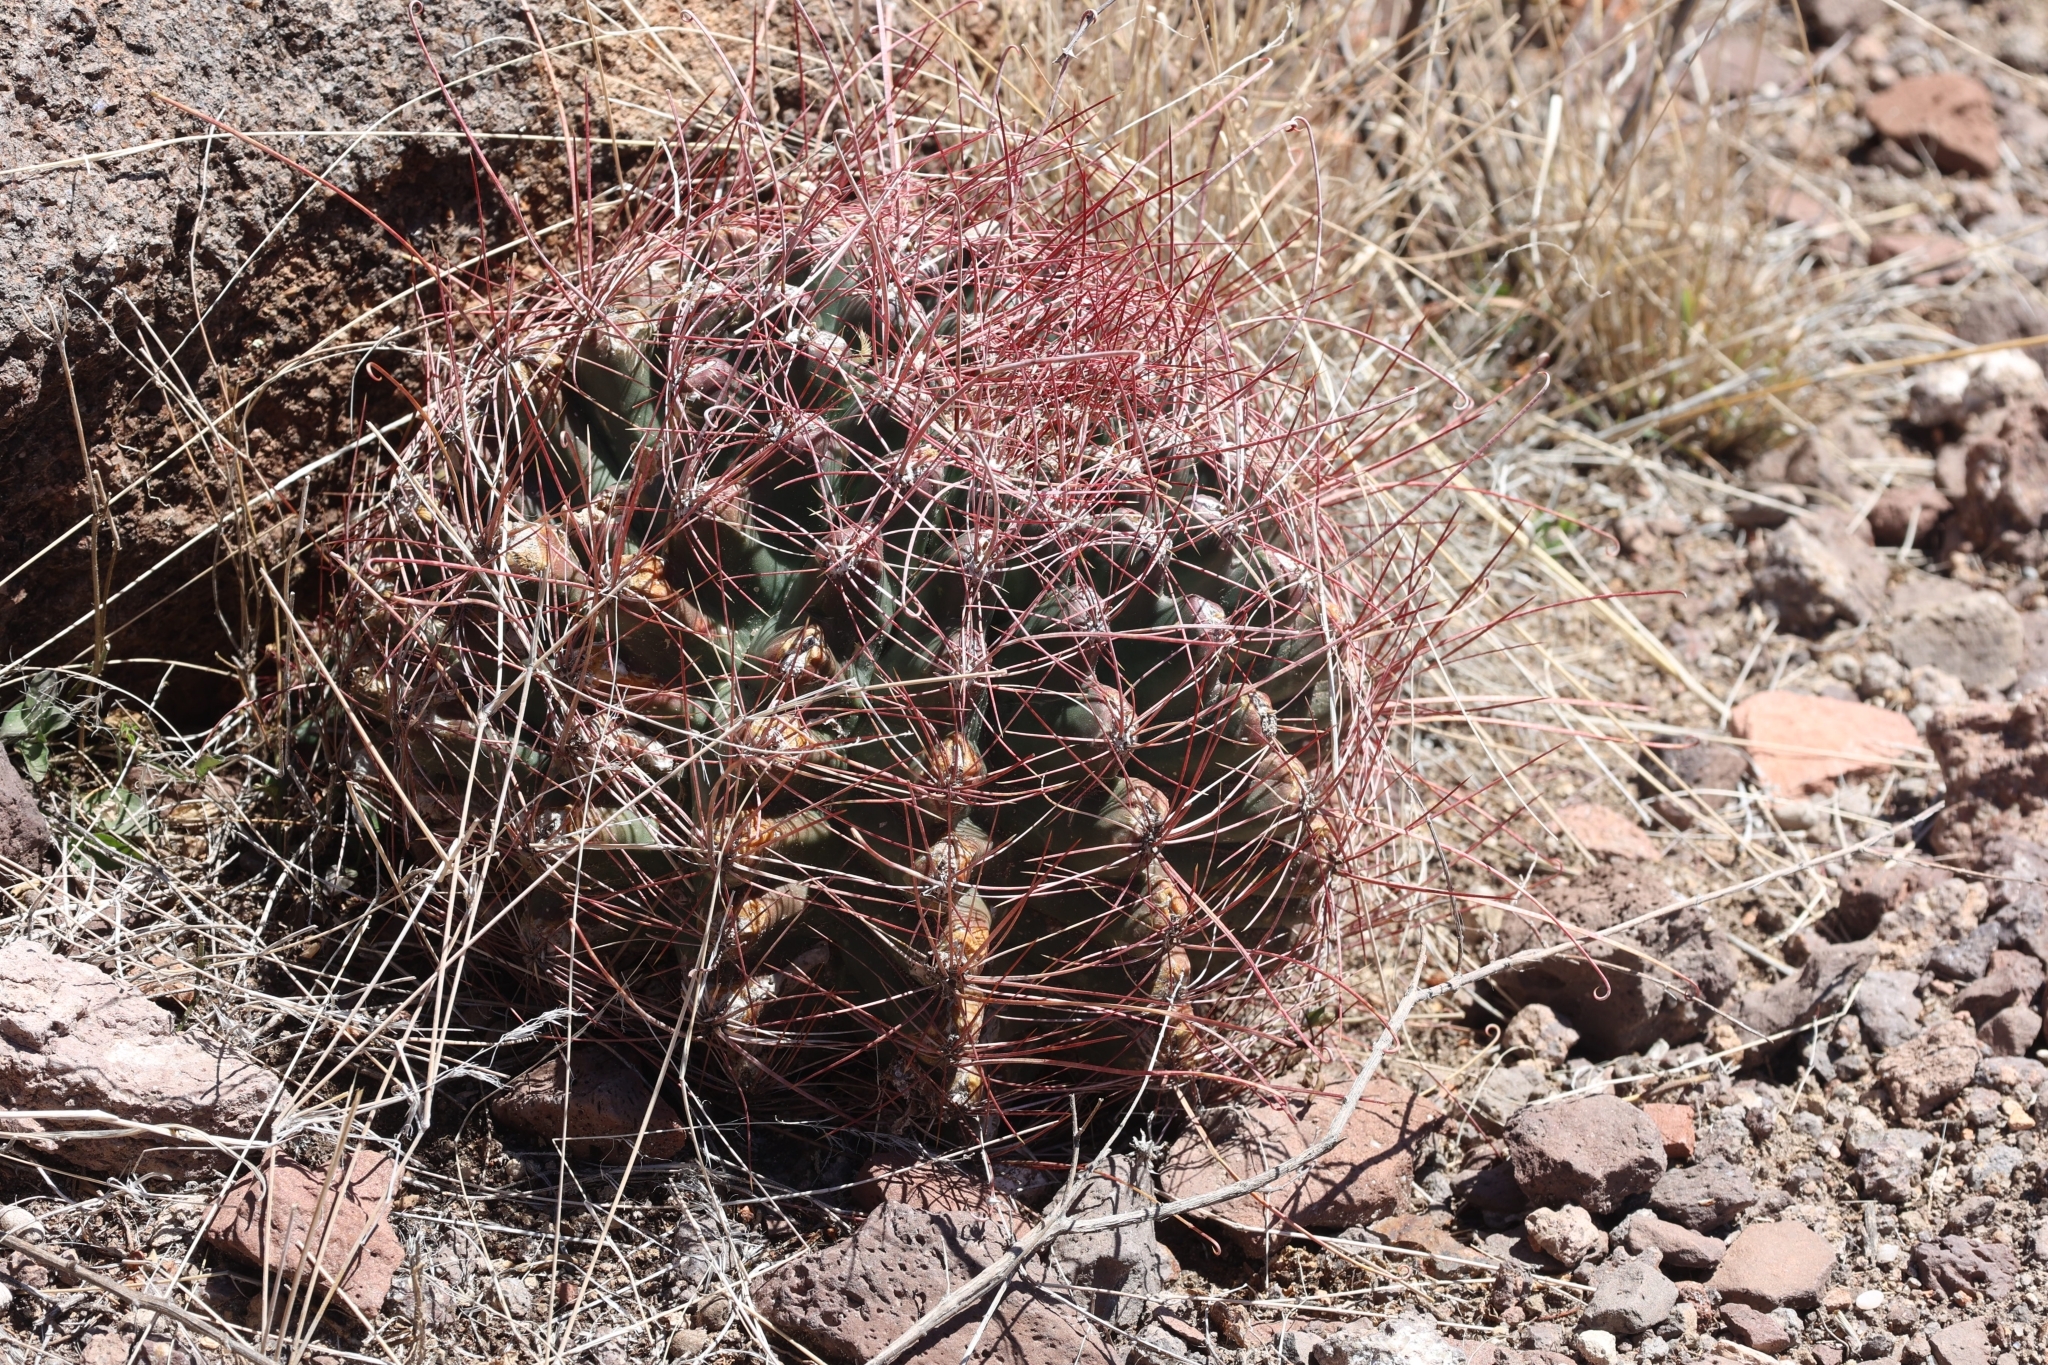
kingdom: Plantae
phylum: Tracheophyta
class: Magnoliopsida
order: Caryophyllales
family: Cactaceae
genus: Bisnaga
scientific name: Bisnaga hamatacantha
